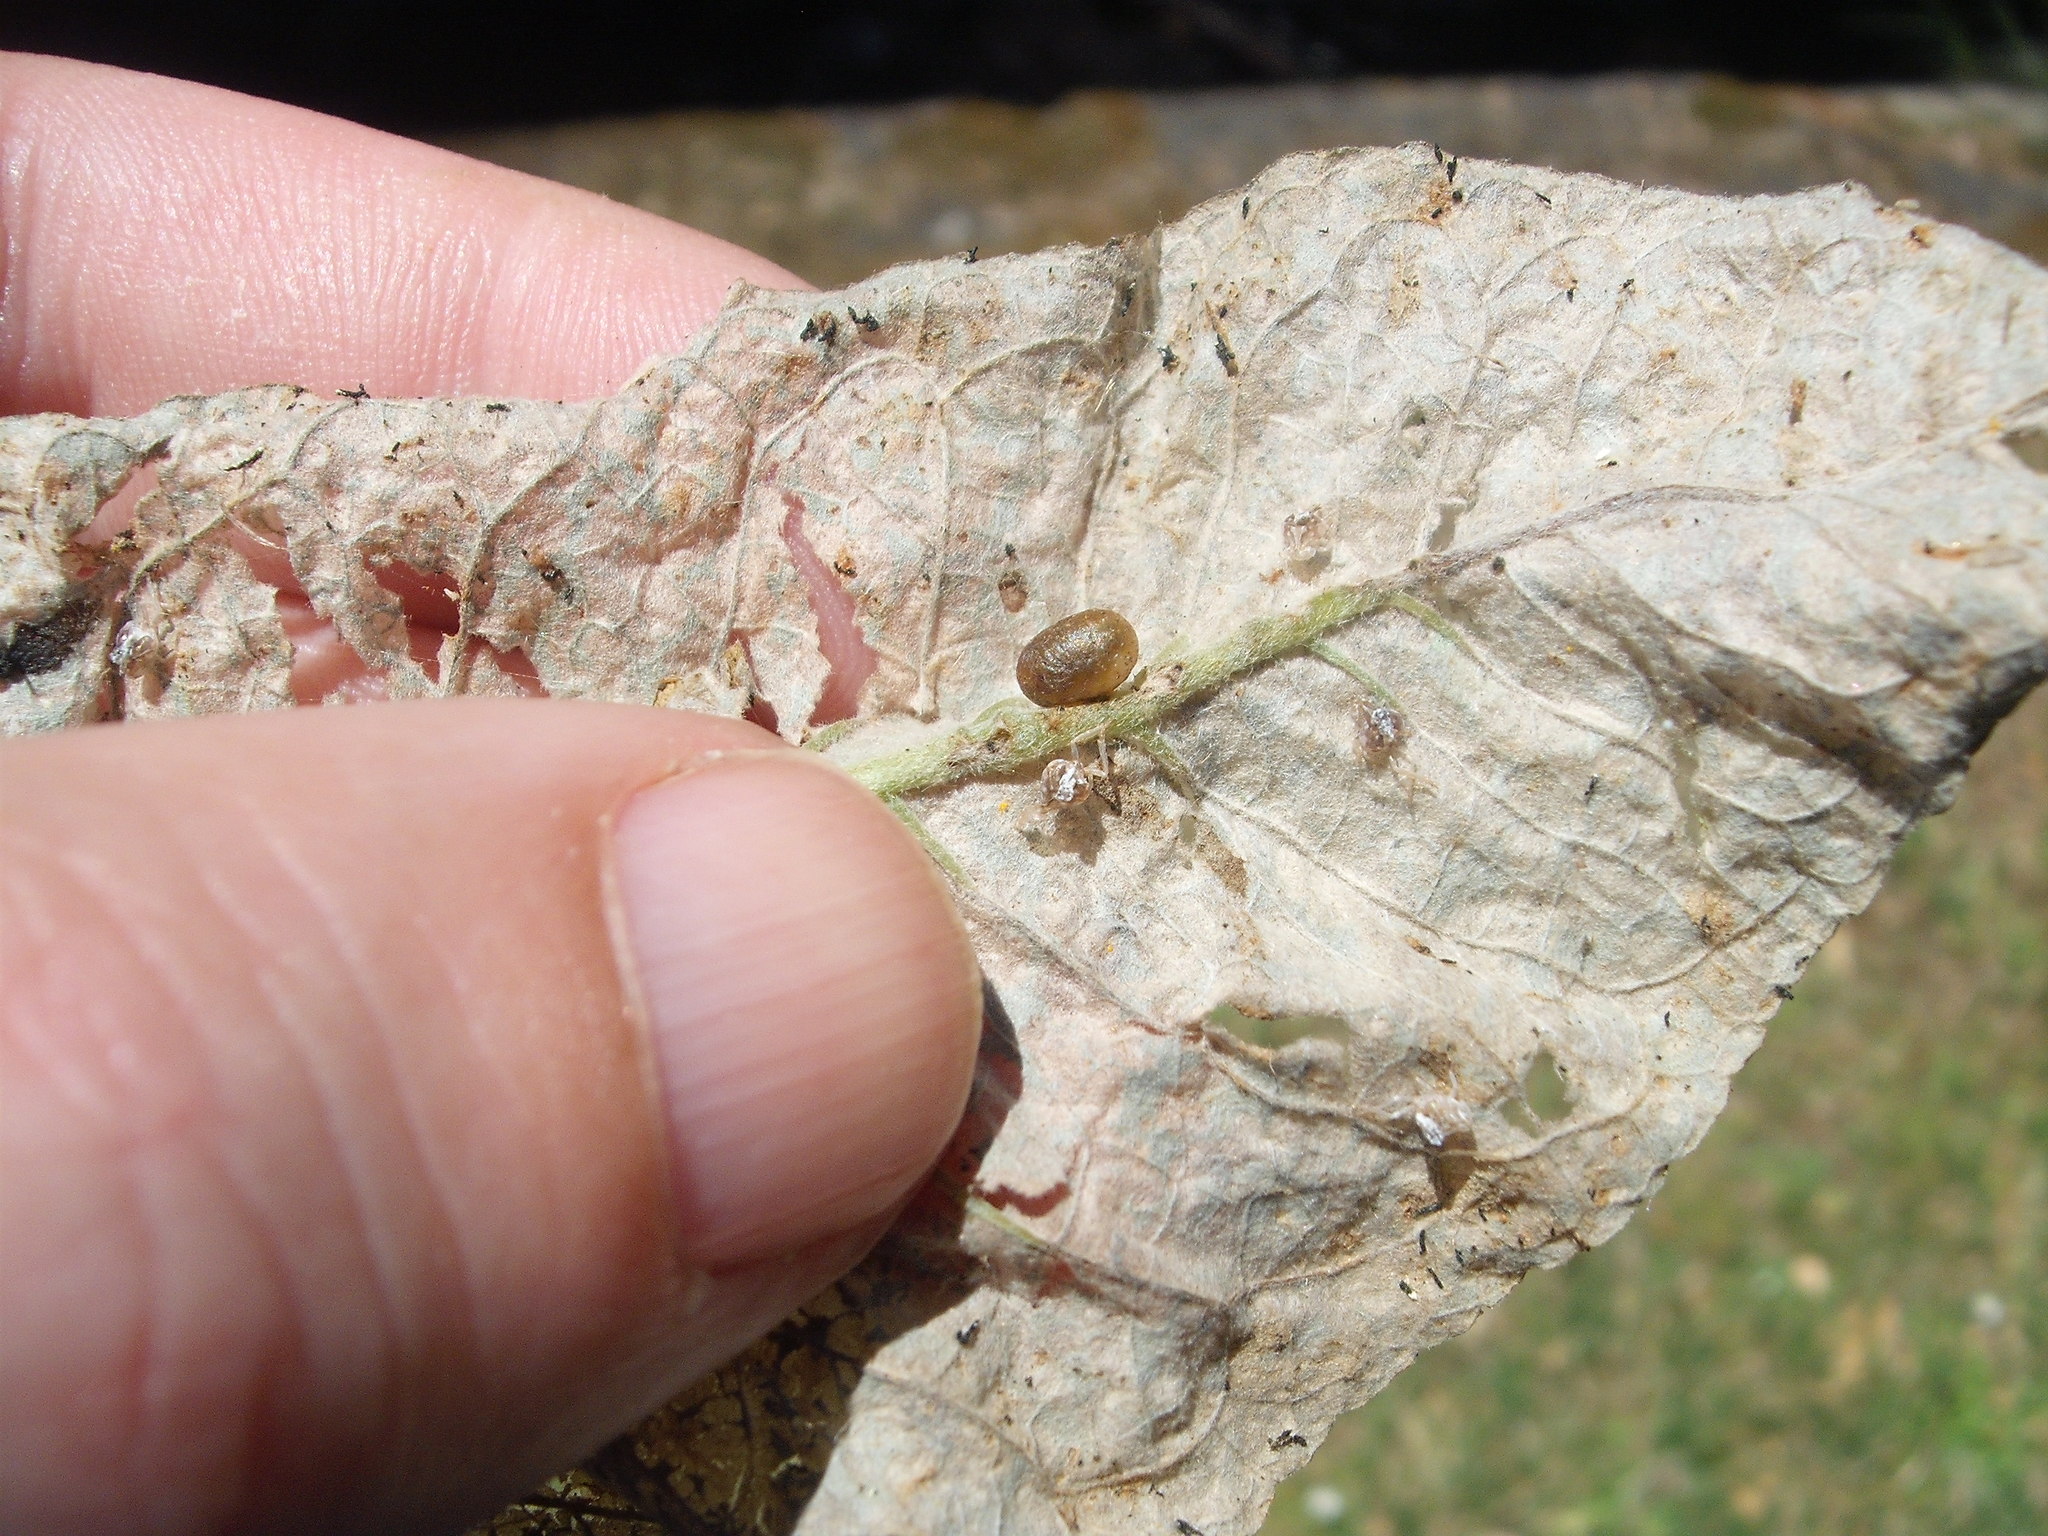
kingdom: Animalia
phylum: Arthropoda
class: Insecta
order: Coleoptera
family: Curculionidae
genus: Cleopus
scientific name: Cleopus japonicus
